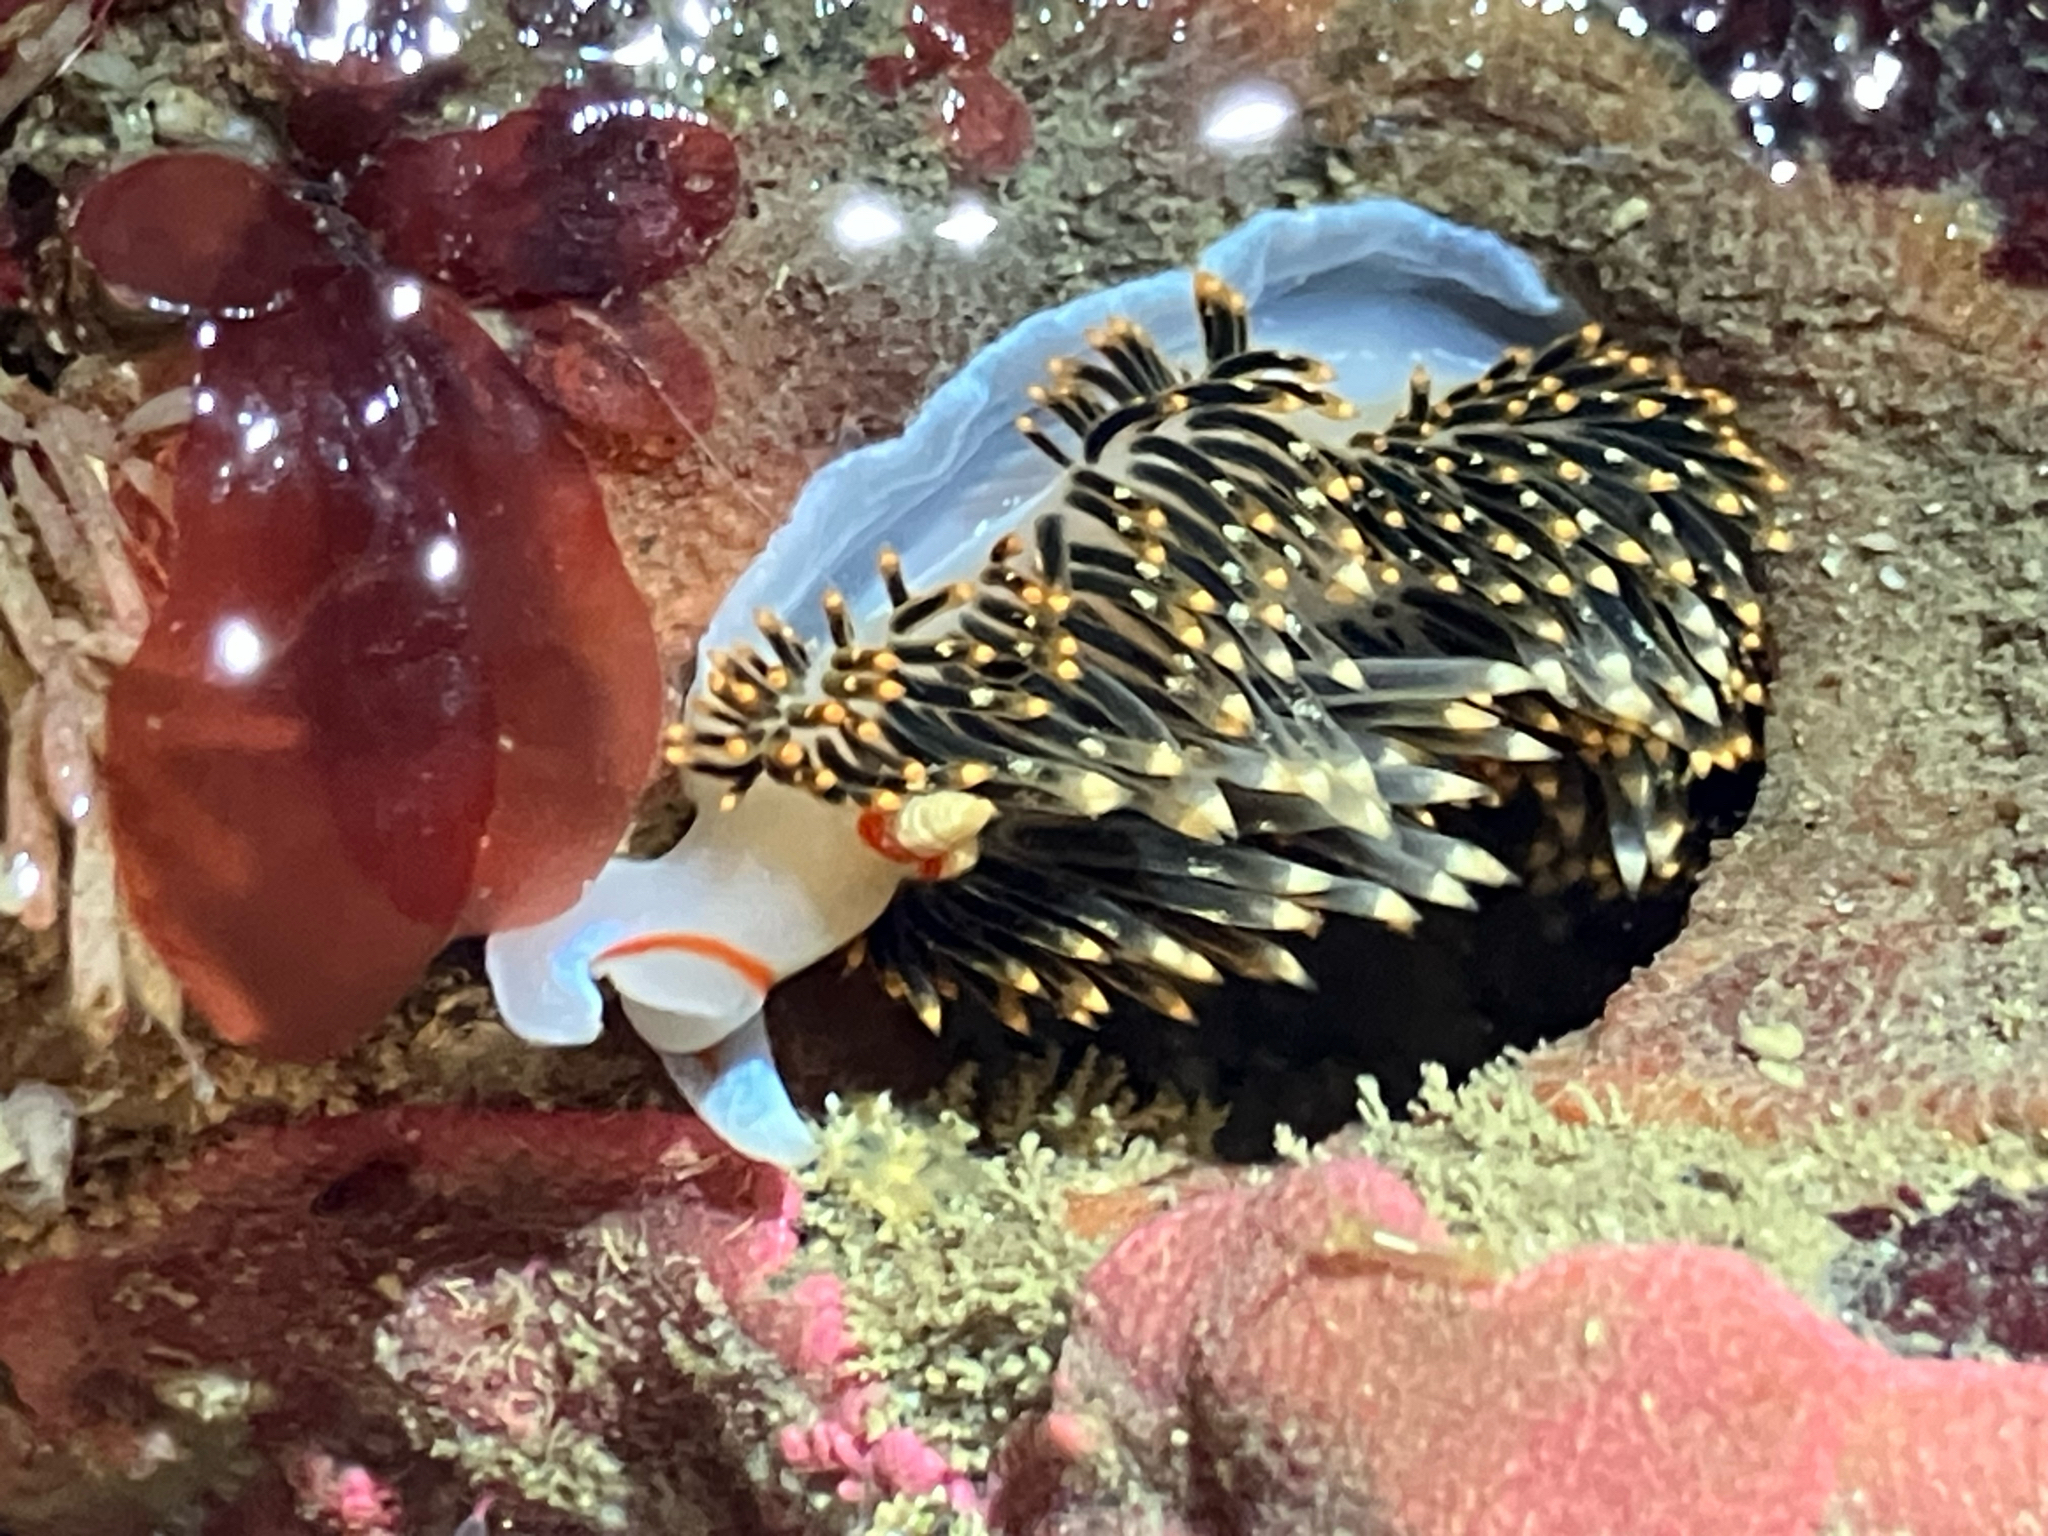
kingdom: Animalia
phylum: Mollusca
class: Gastropoda
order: Nudibranchia
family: Facelinidae
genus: Phidiana
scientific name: Phidiana hiltoni
